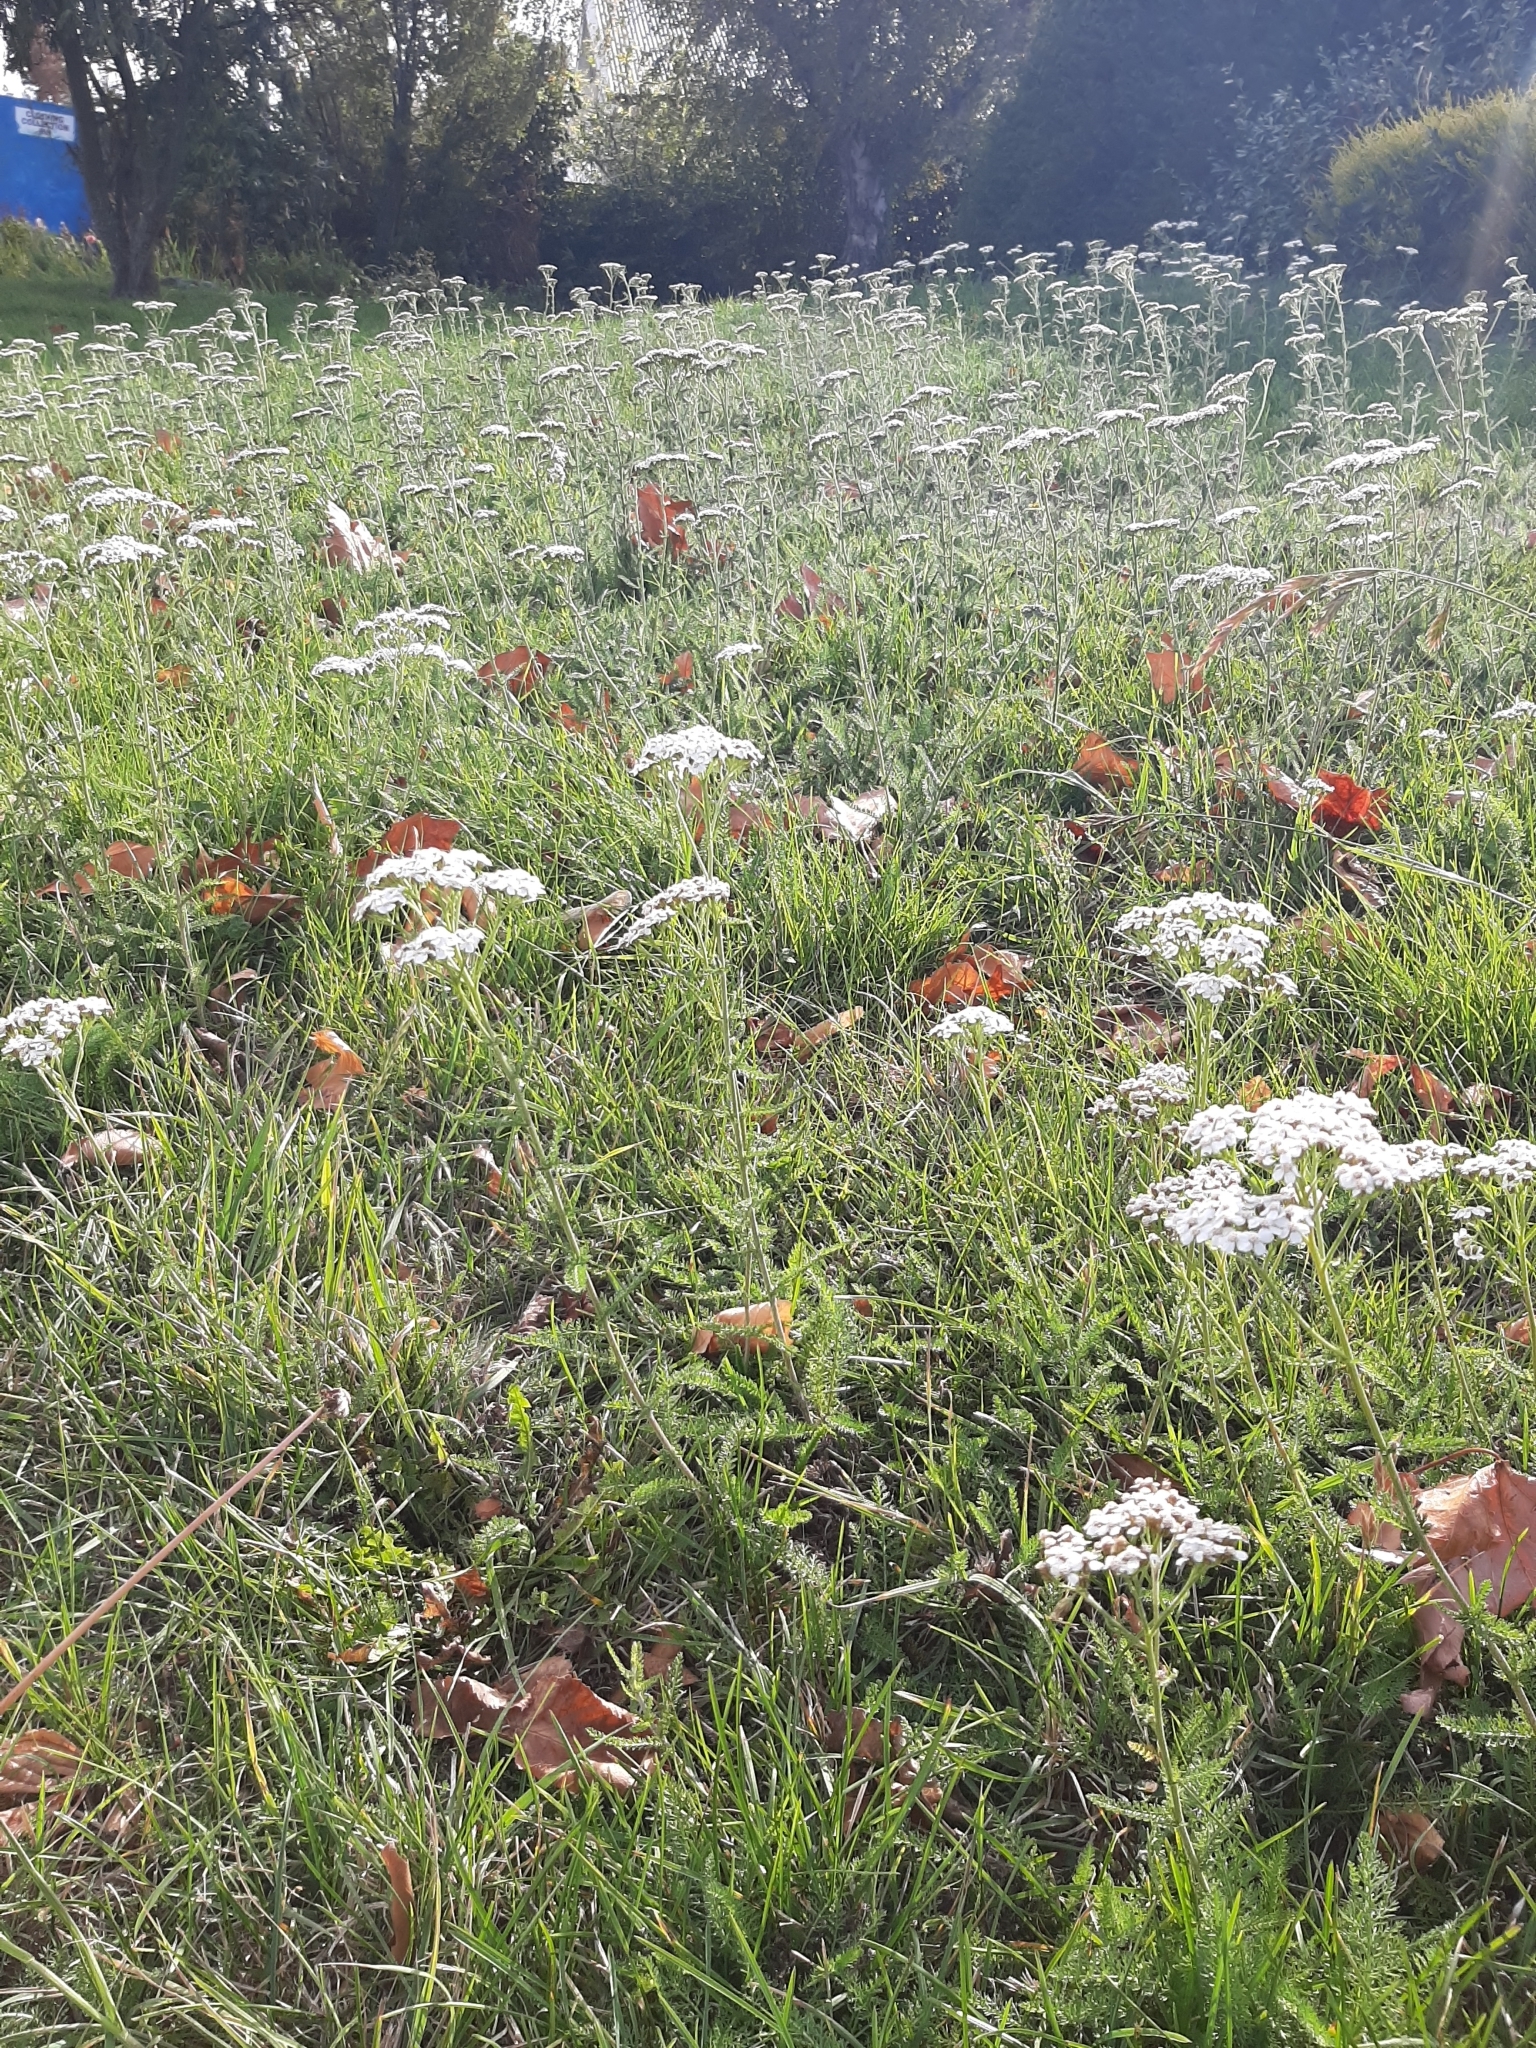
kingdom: Plantae
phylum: Tracheophyta
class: Magnoliopsida
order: Asterales
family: Asteraceae
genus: Achillea
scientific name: Achillea millefolium
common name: Yarrow
